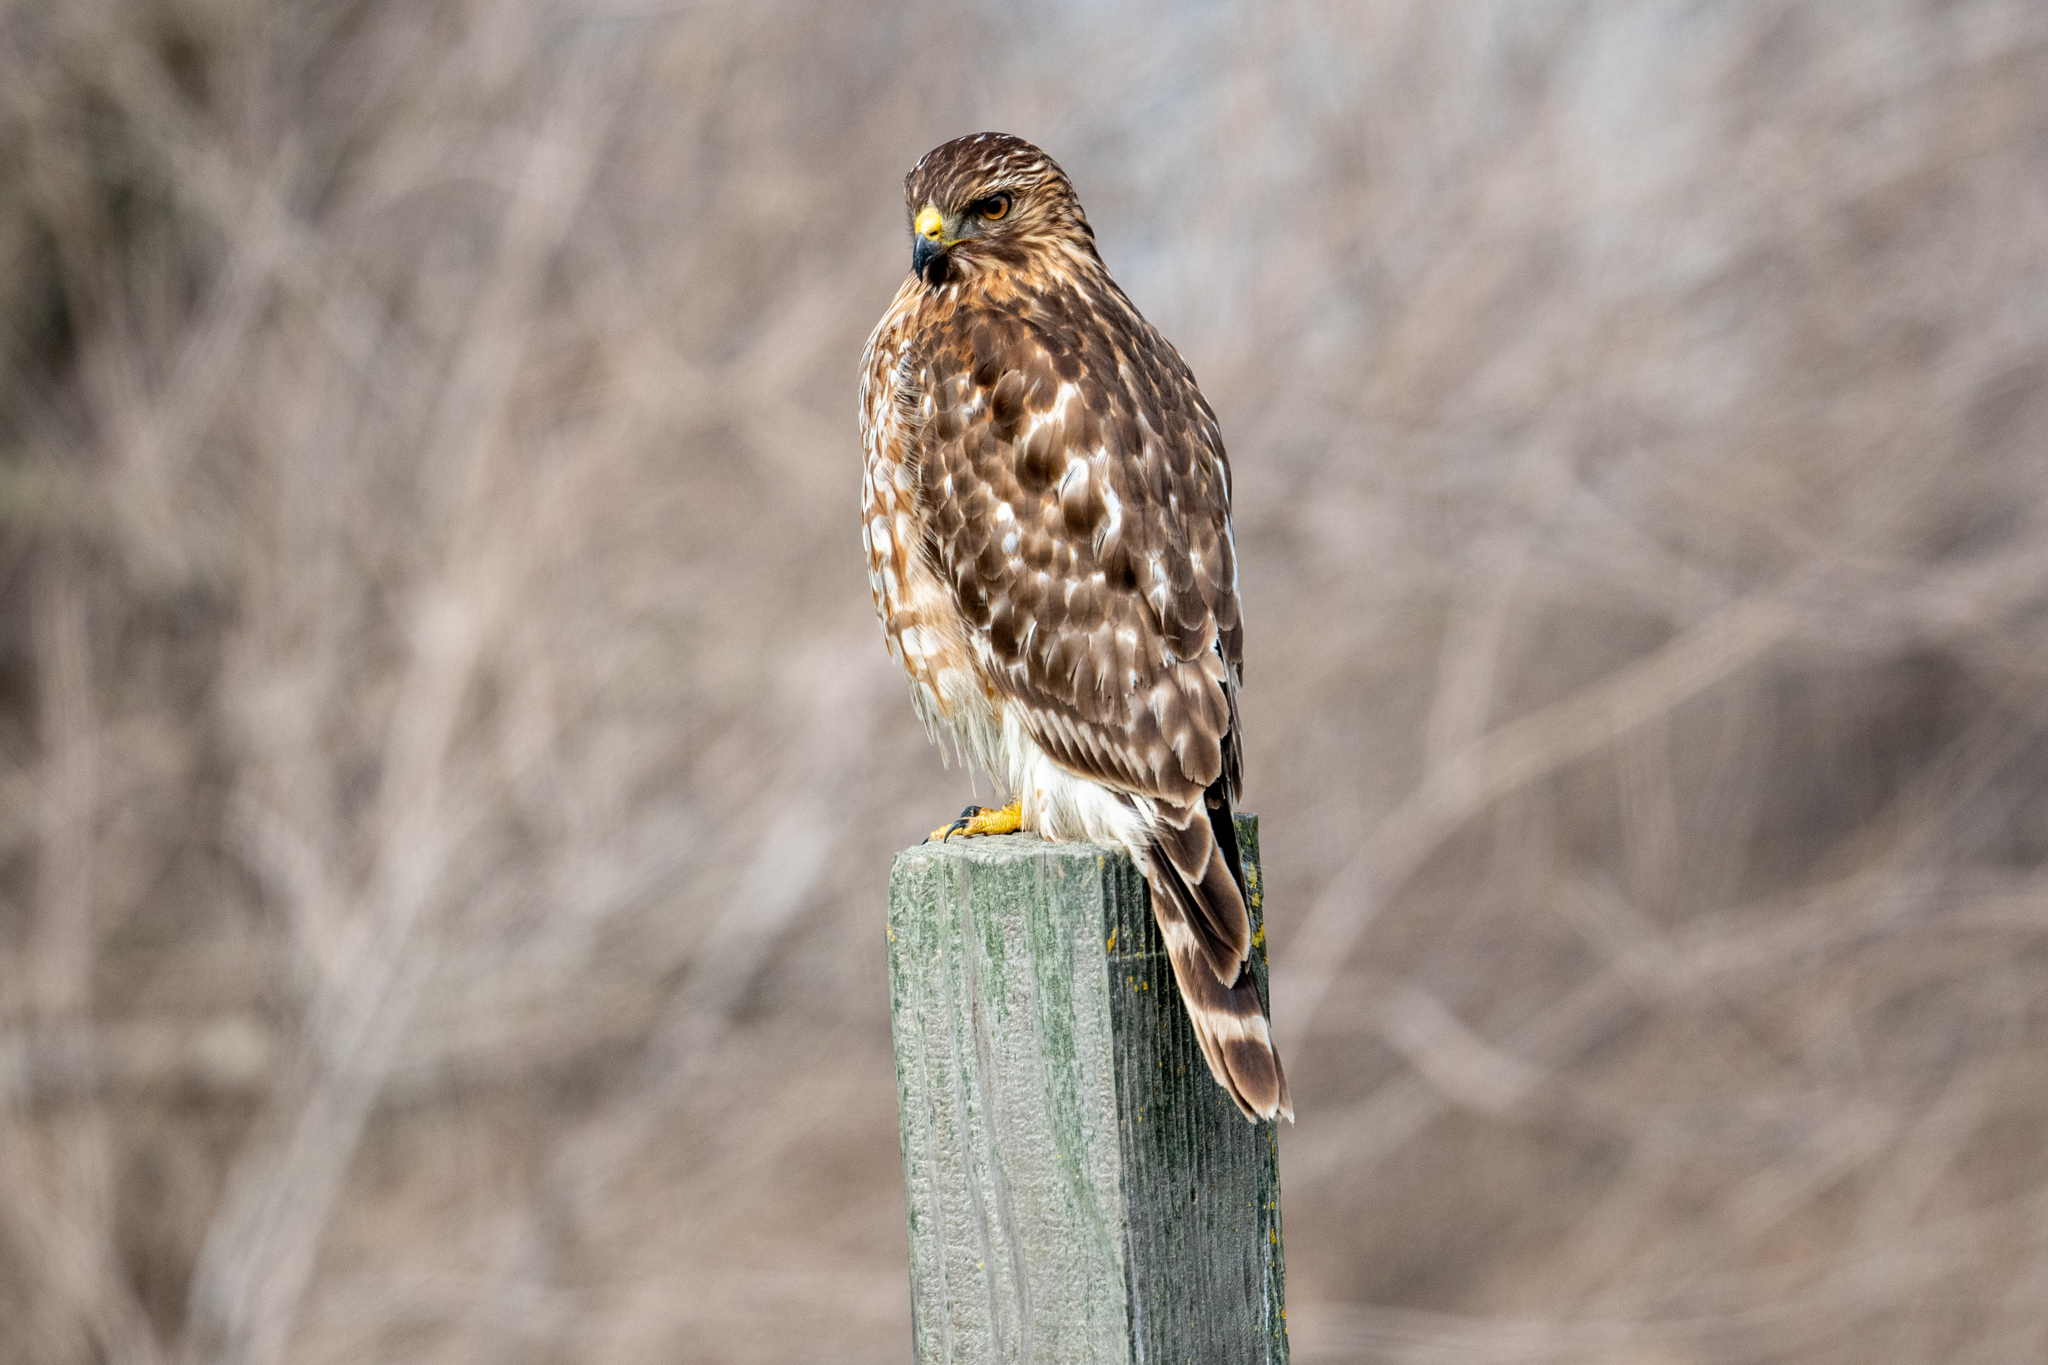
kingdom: Animalia
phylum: Chordata
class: Aves
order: Accipitriformes
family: Accipitridae
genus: Buteo
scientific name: Buteo lineatus
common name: Red-shouldered hawk
